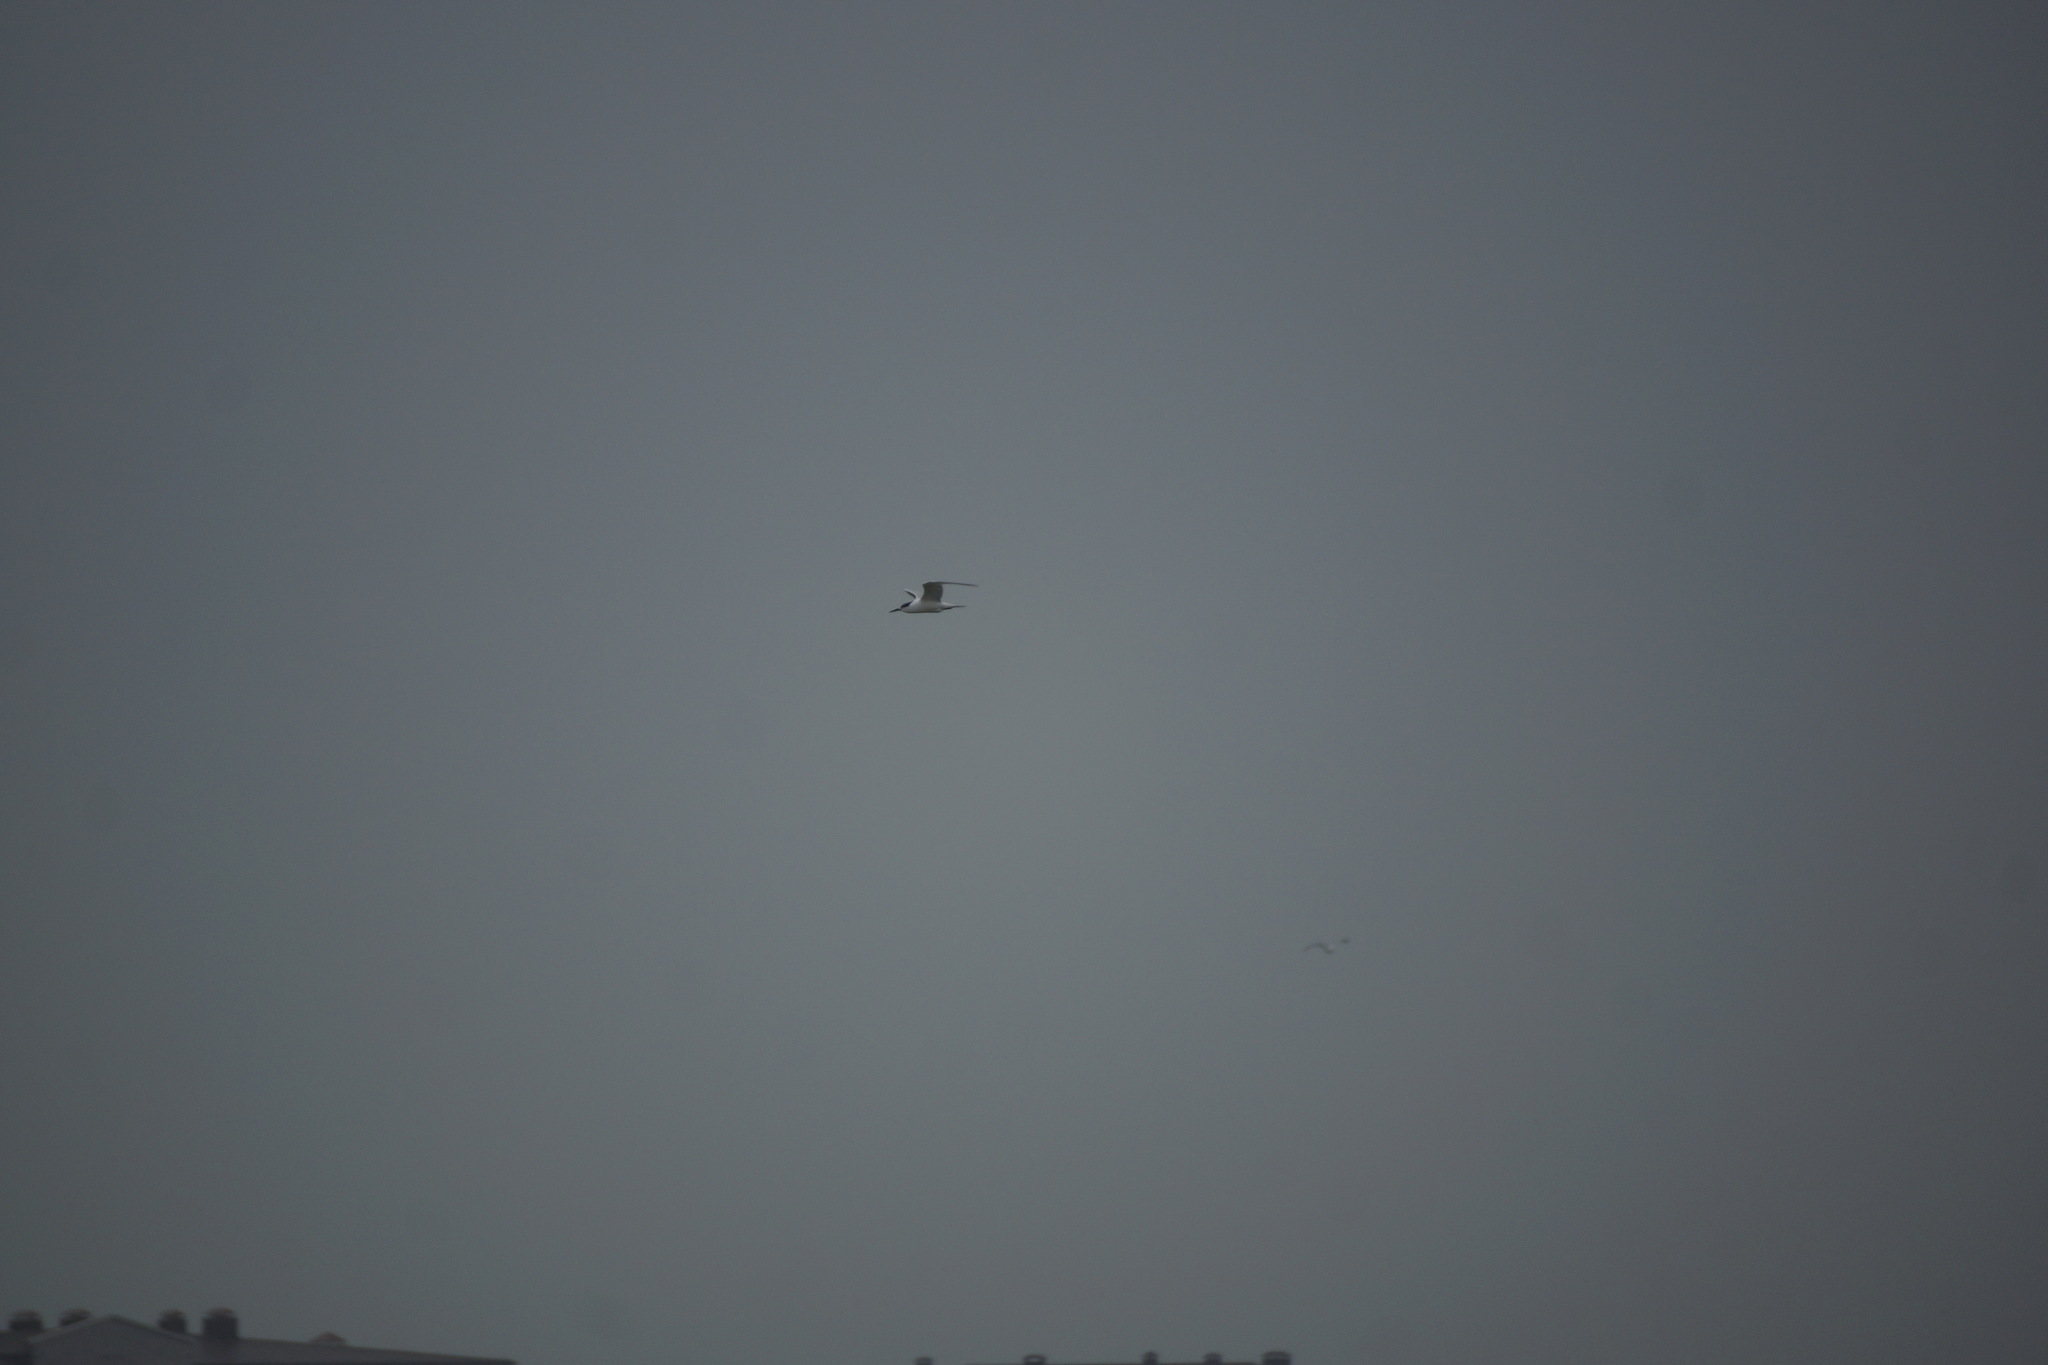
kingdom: Animalia
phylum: Chordata
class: Aves
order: Charadriiformes
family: Laridae
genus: Thalasseus
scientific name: Thalasseus sandvicensis
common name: Sandwich tern
